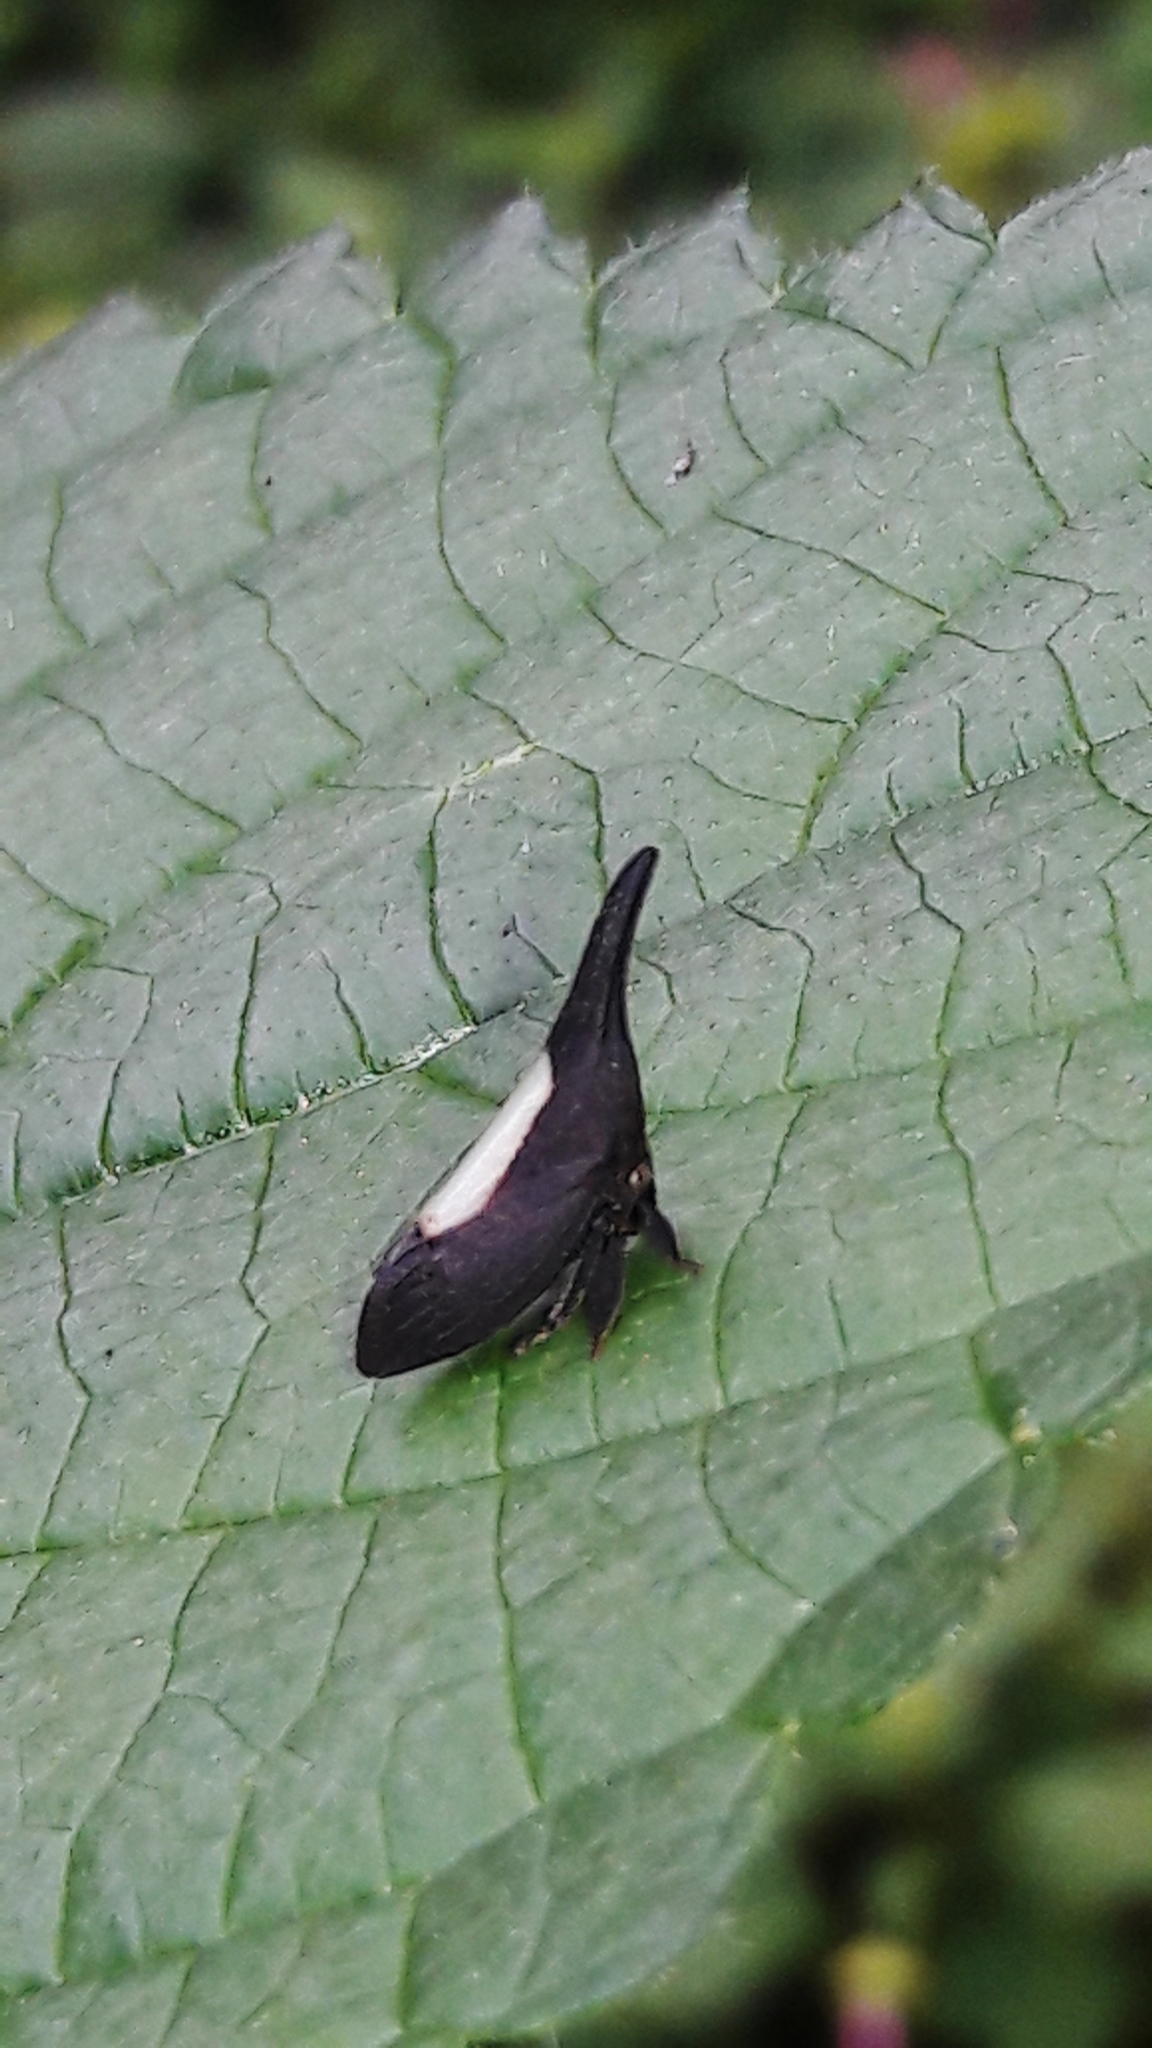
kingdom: Animalia
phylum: Arthropoda
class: Insecta
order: Hemiptera
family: Membracidae
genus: Enchenopa
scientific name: Enchenopa albidorsa
